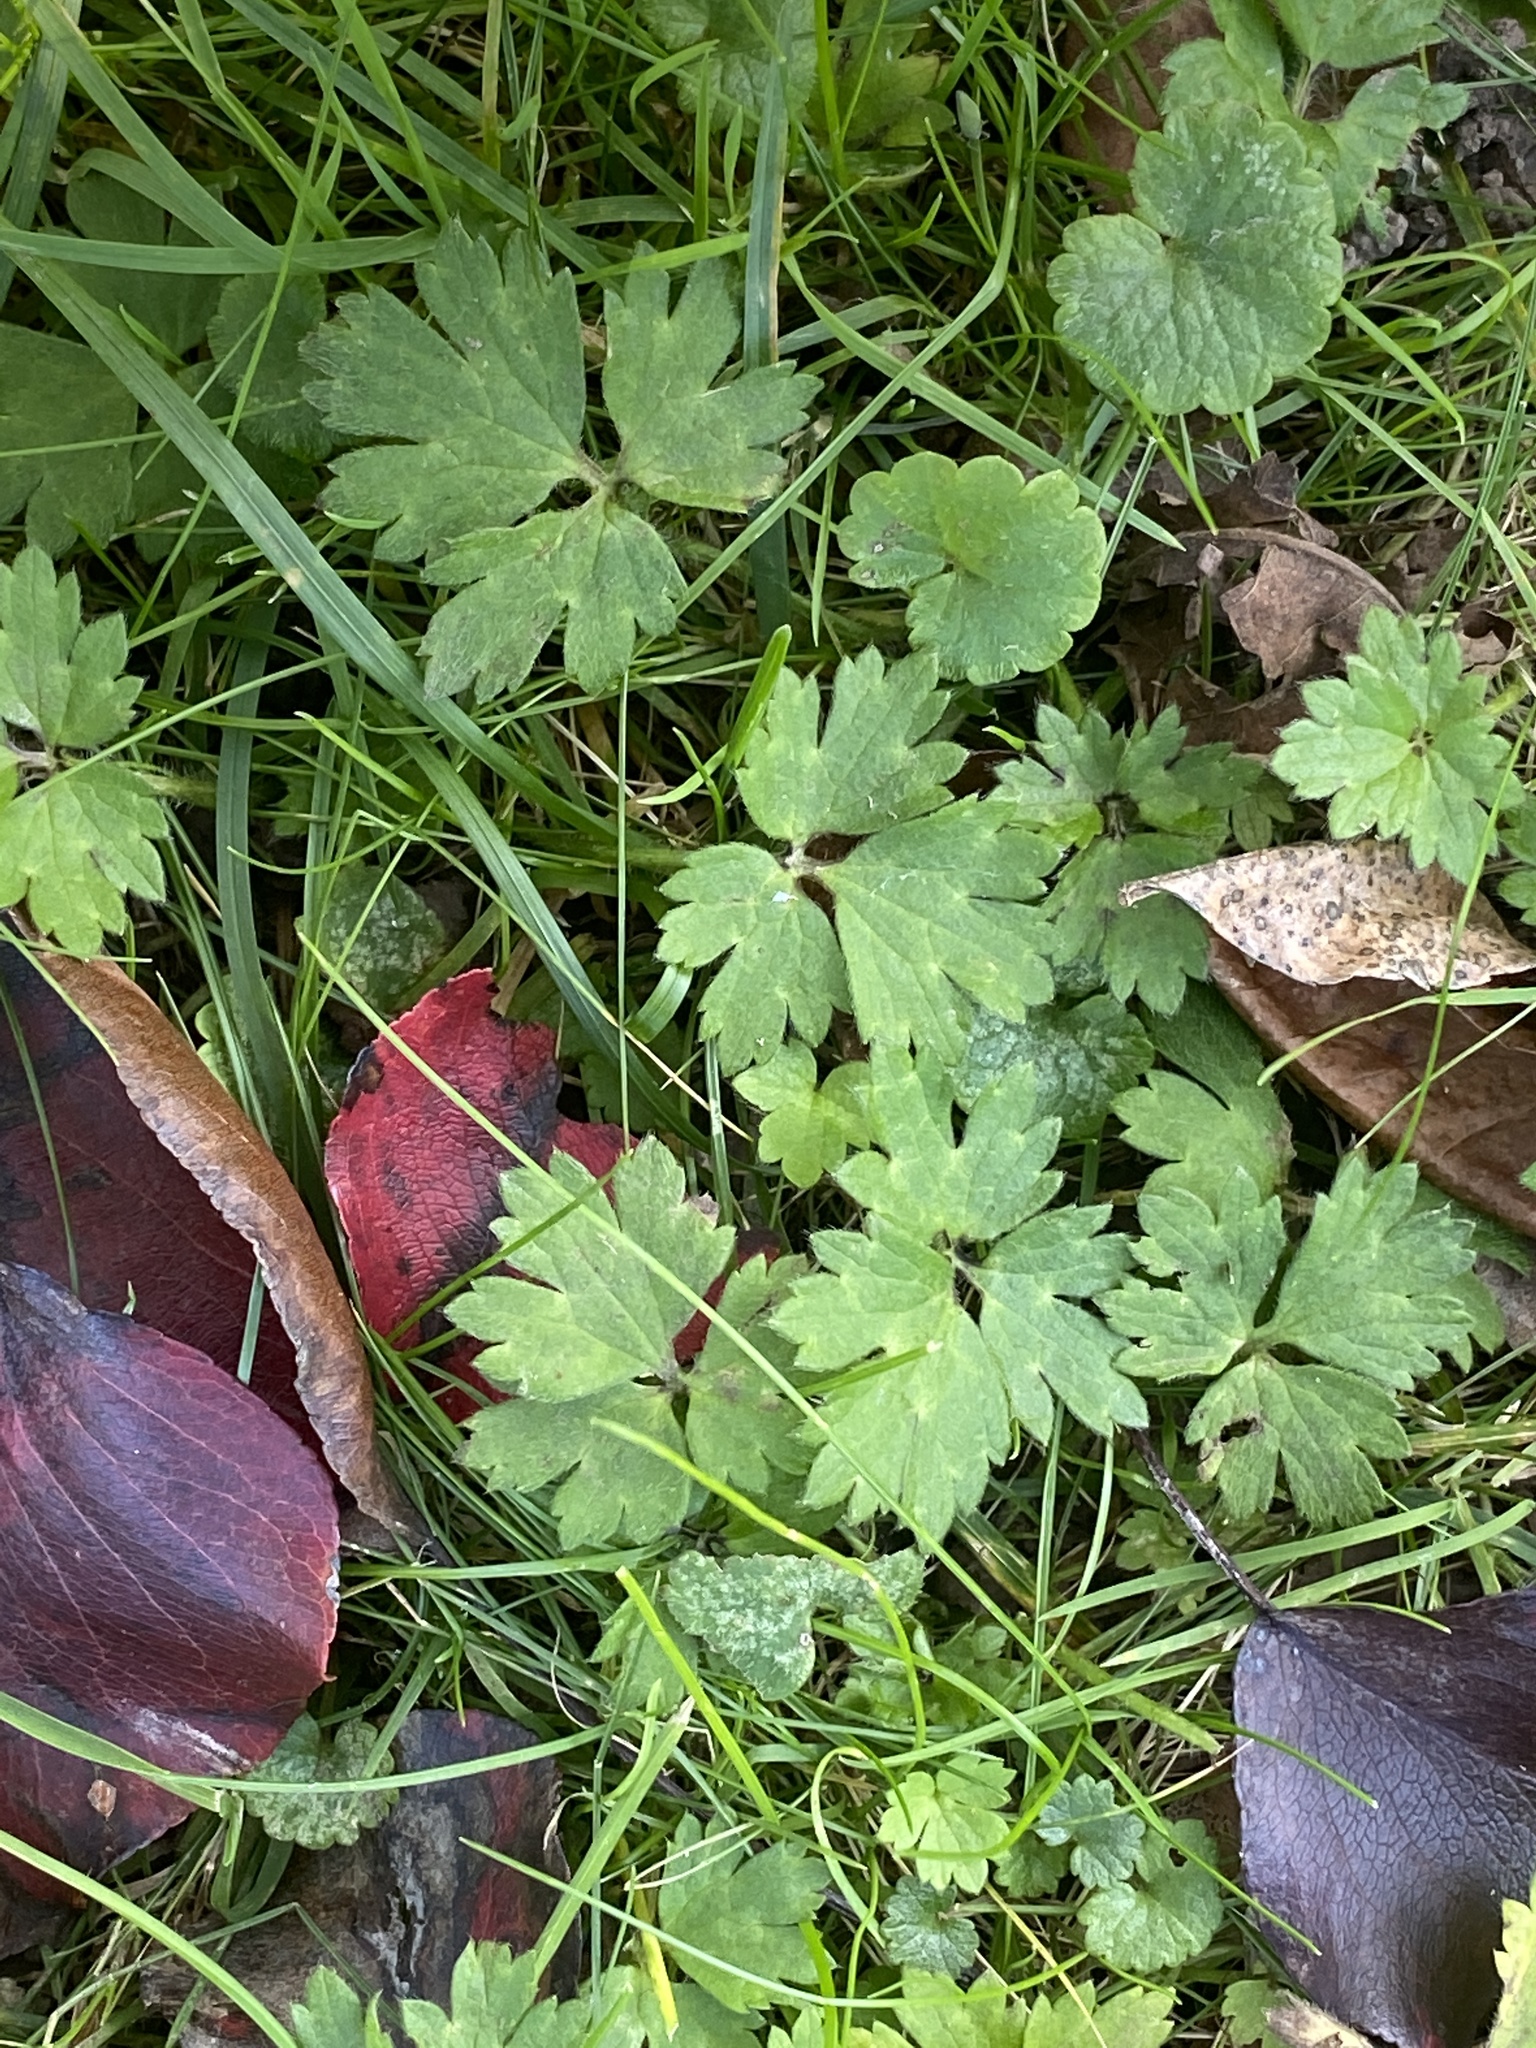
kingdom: Plantae
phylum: Tracheophyta
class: Magnoliopsida
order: Ranunculales
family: Ranunculaceae
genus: Ranunculus
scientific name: Ranunculus repens
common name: Creeping buttercup
